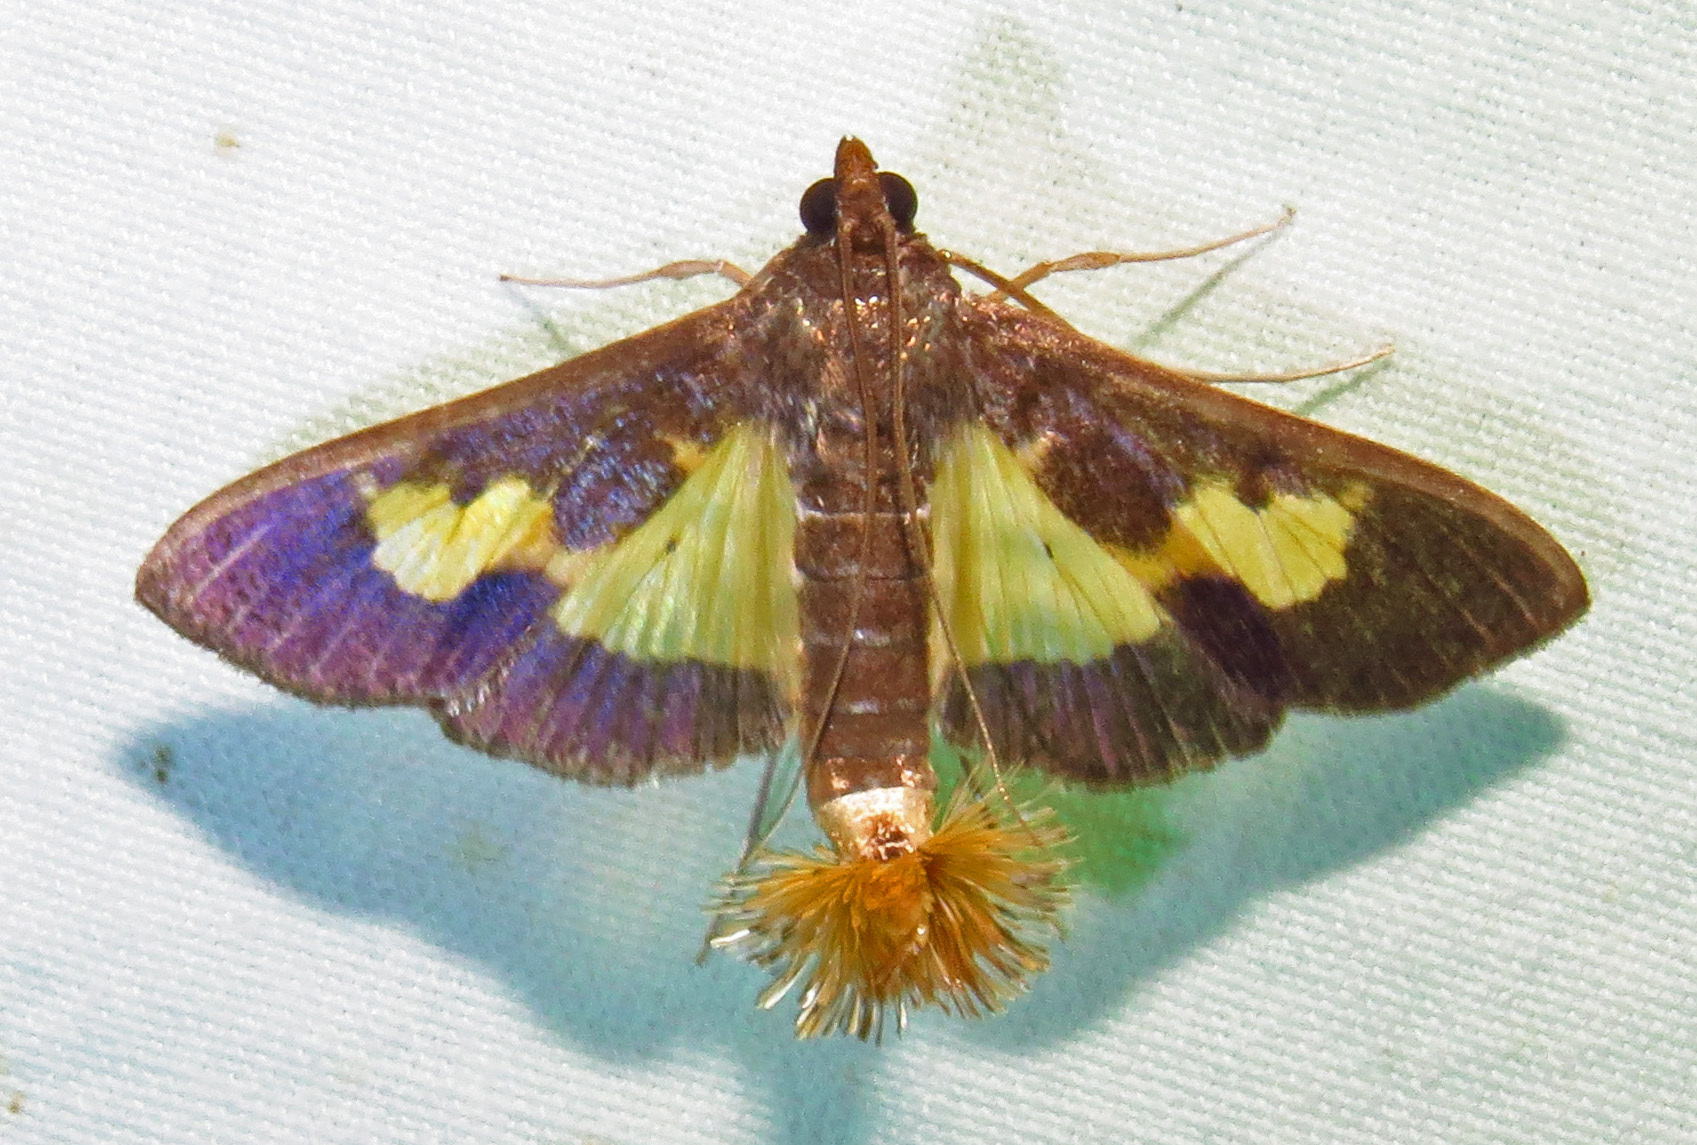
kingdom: Animalia
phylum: Arthropoda
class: Insecta
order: Lepidoptera
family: Crambidae
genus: Cryptographis
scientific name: Cryptographis nitidalis
